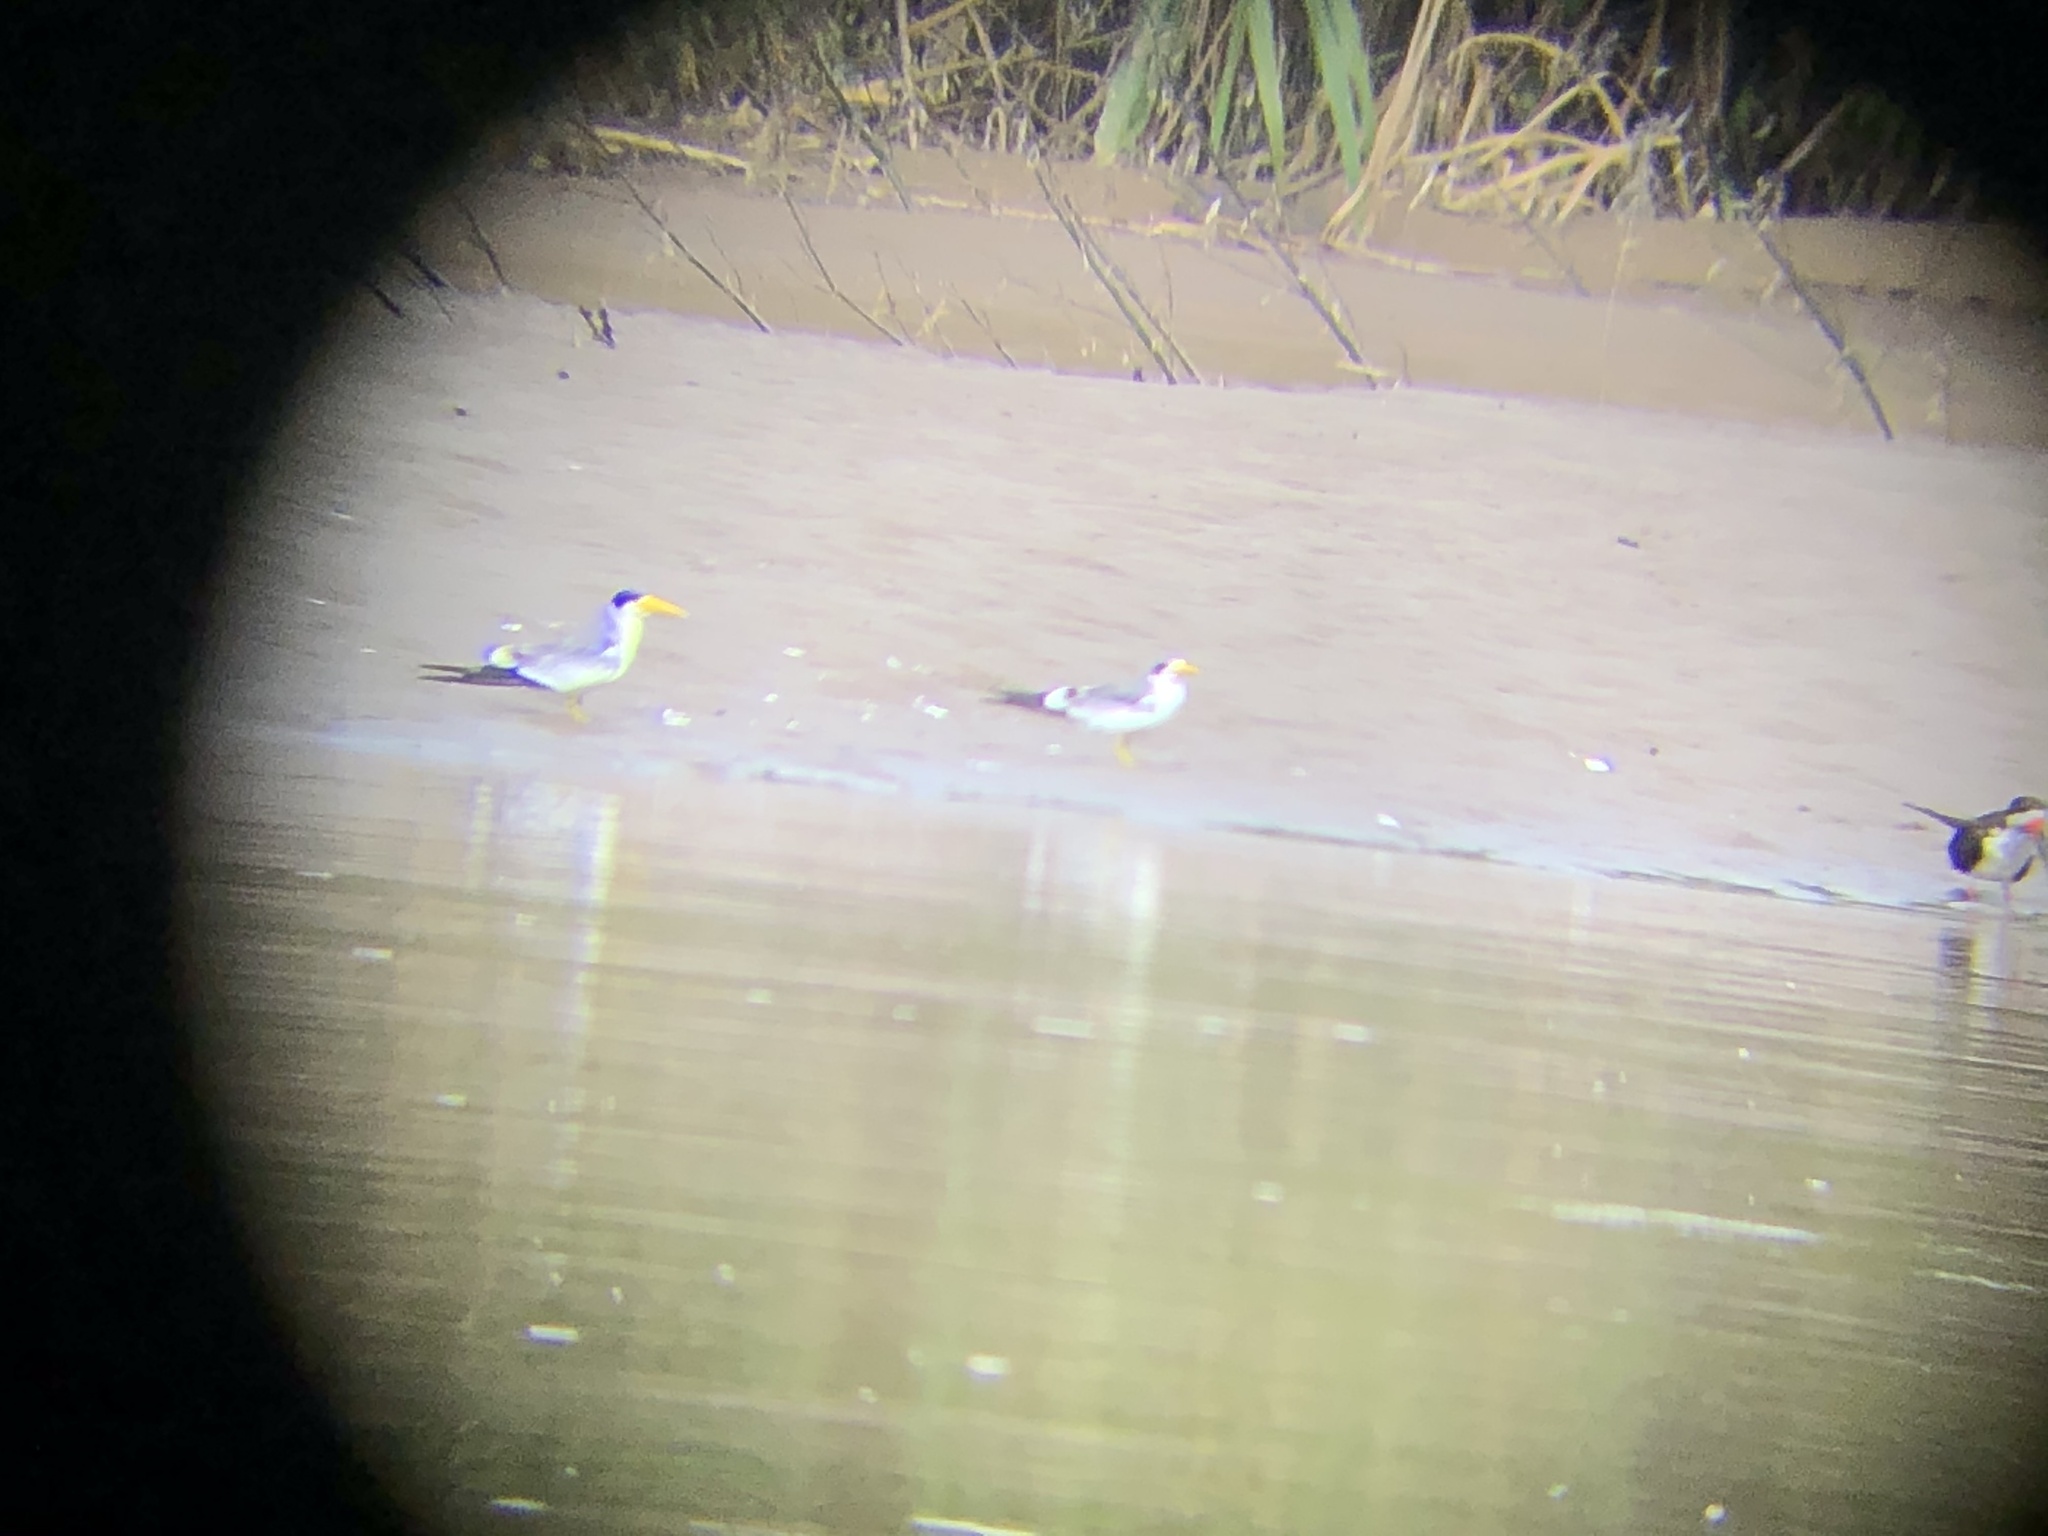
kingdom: Animalia
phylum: Chordata
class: Aves
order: Charadriiformes
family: Laridae
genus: Phaetusa
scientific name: Phaetusa simplex
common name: Large-billed tern
